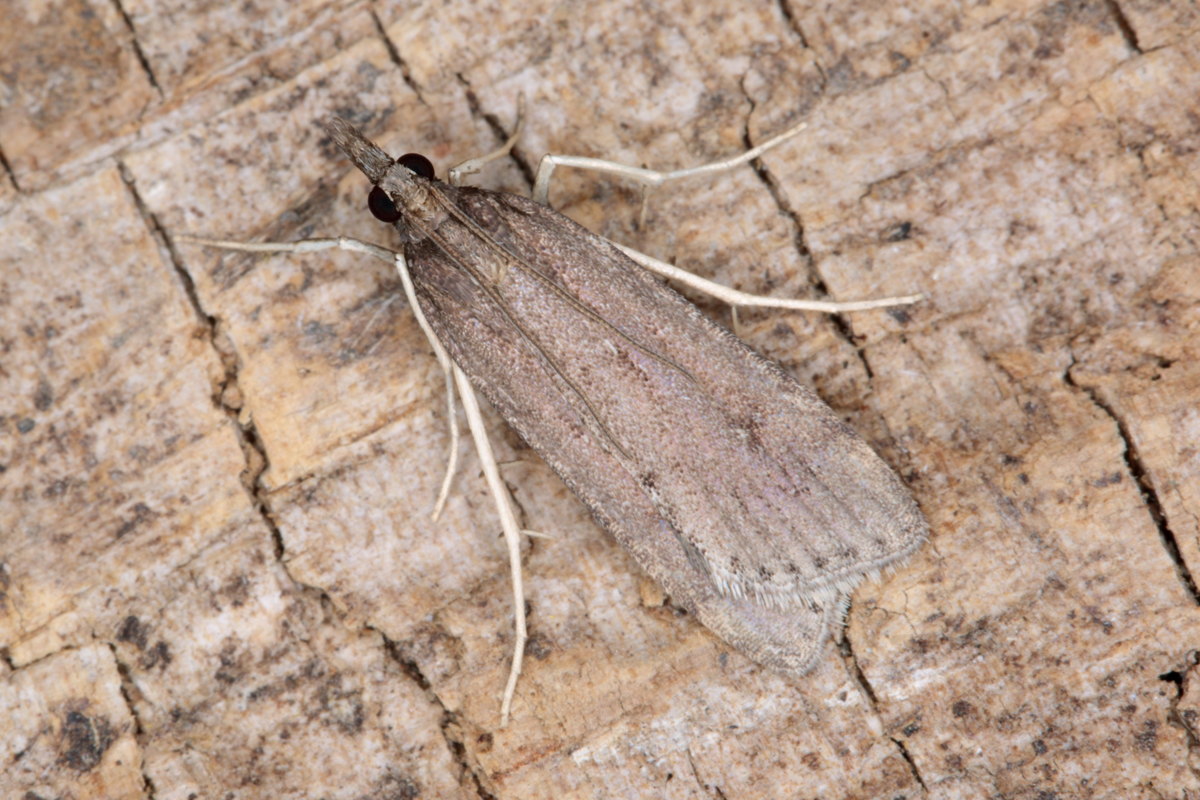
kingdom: Animalia
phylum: Arthropoda
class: Insecta
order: Lepidoptera
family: Crambidae
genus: Eudonia
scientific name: Eudonia oculata
